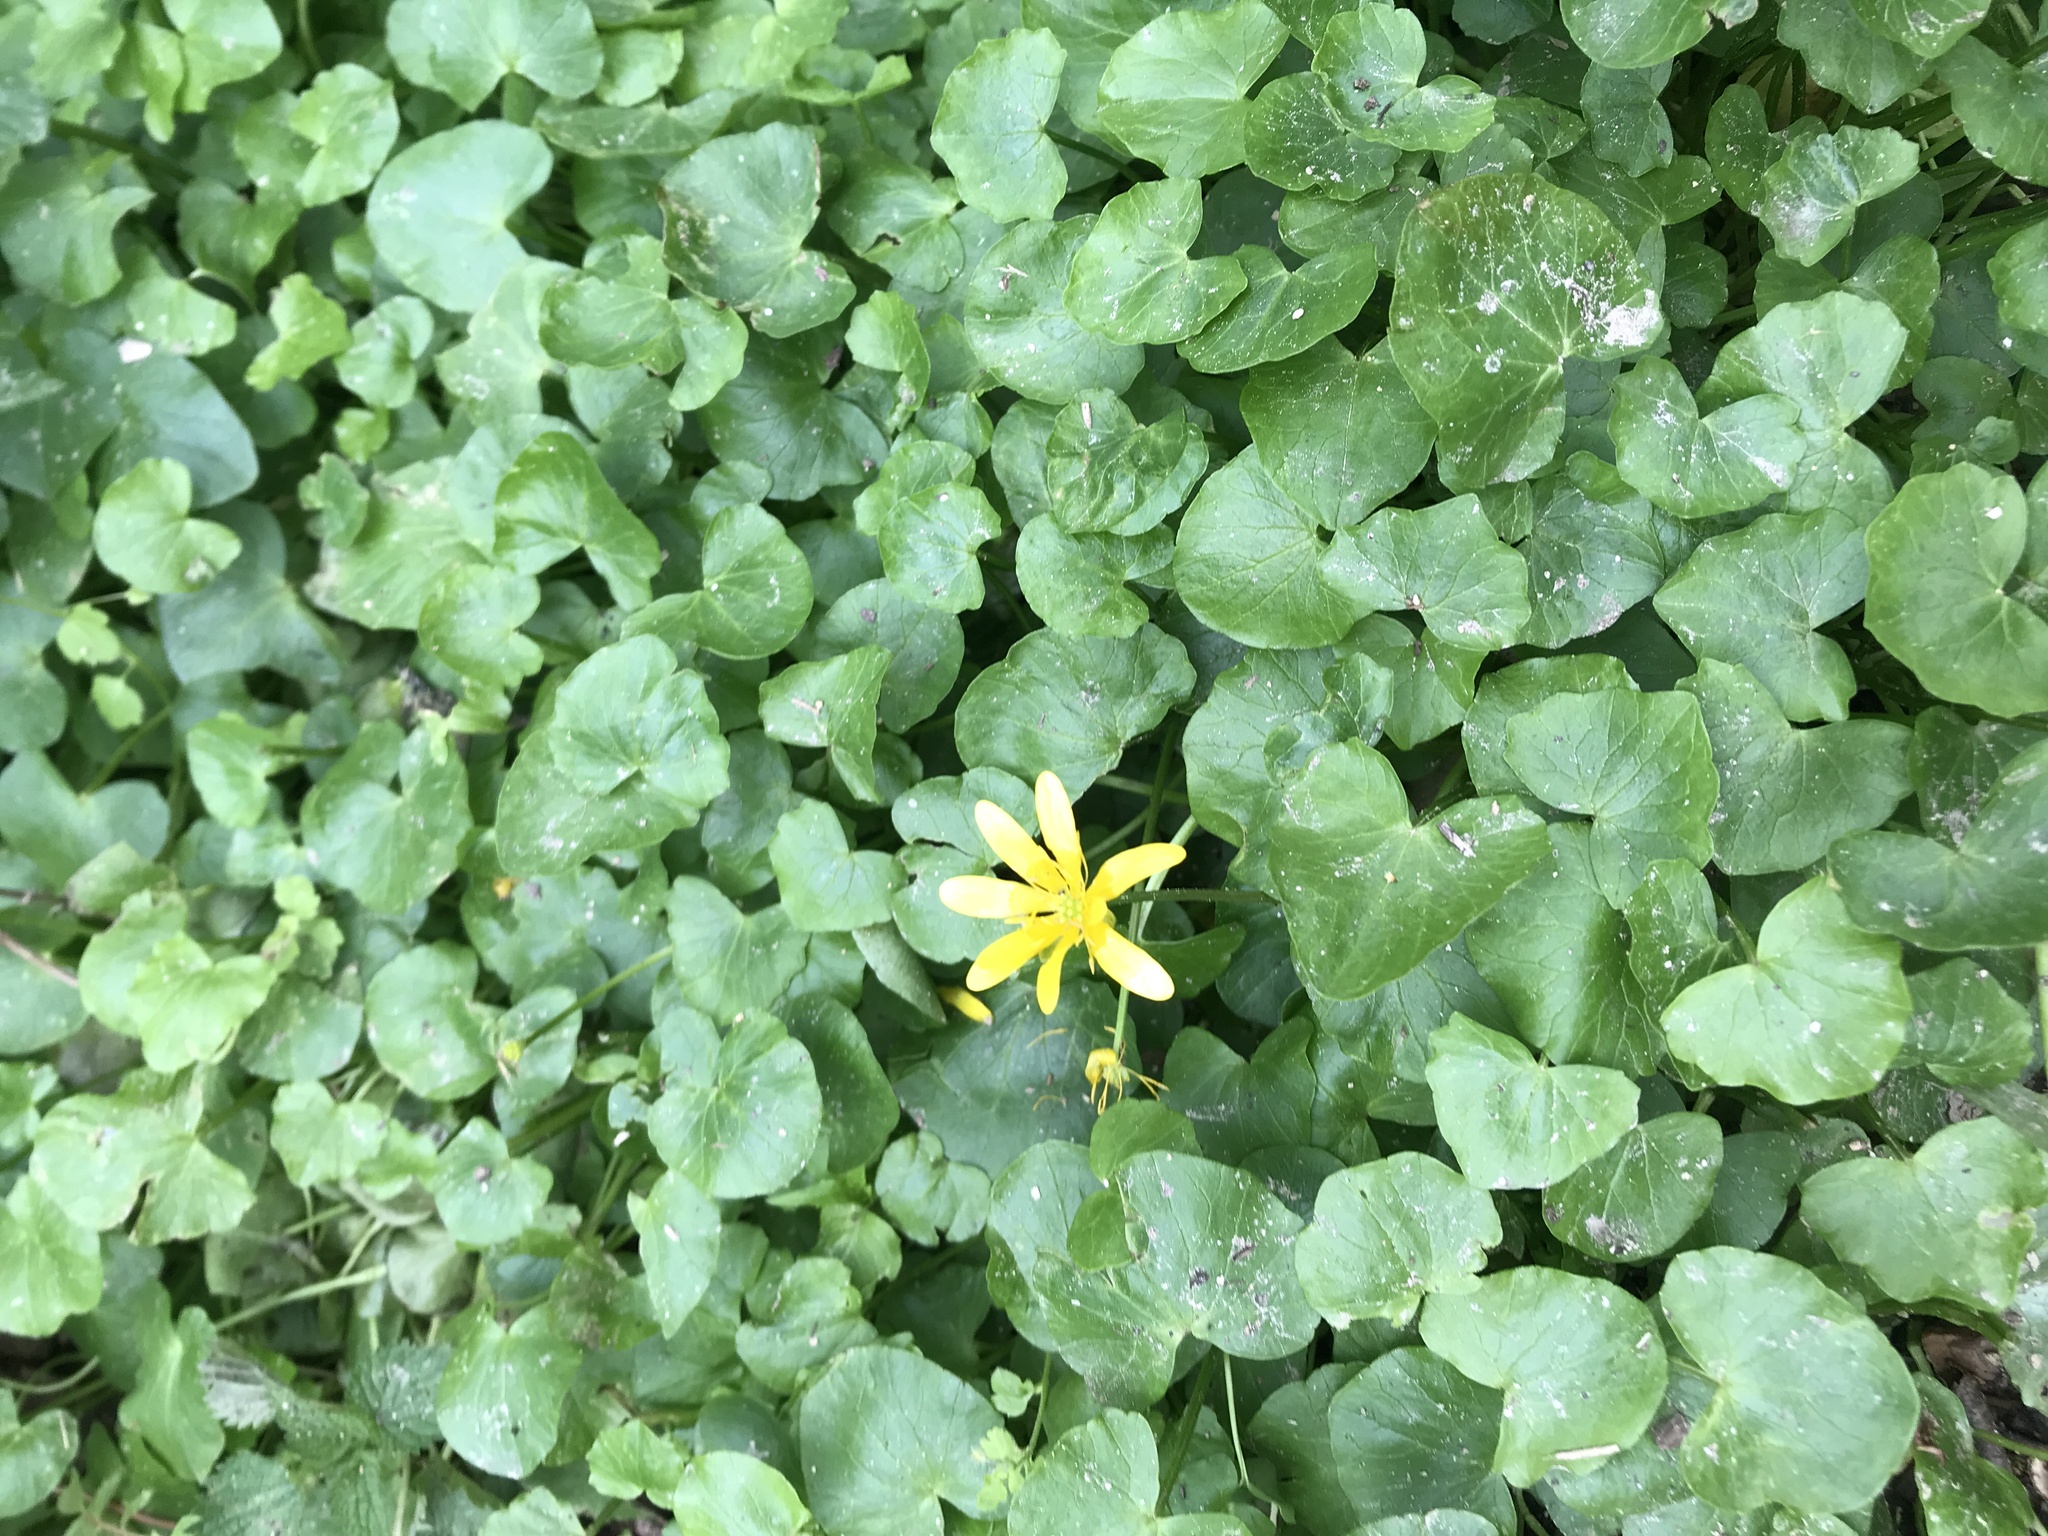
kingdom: Plantae
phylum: Tracheophyta
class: Magnoliopsida
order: Ranunculales
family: Ranunculaceae
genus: Ficaria
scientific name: Ficaria verna
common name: Lesser celandine
